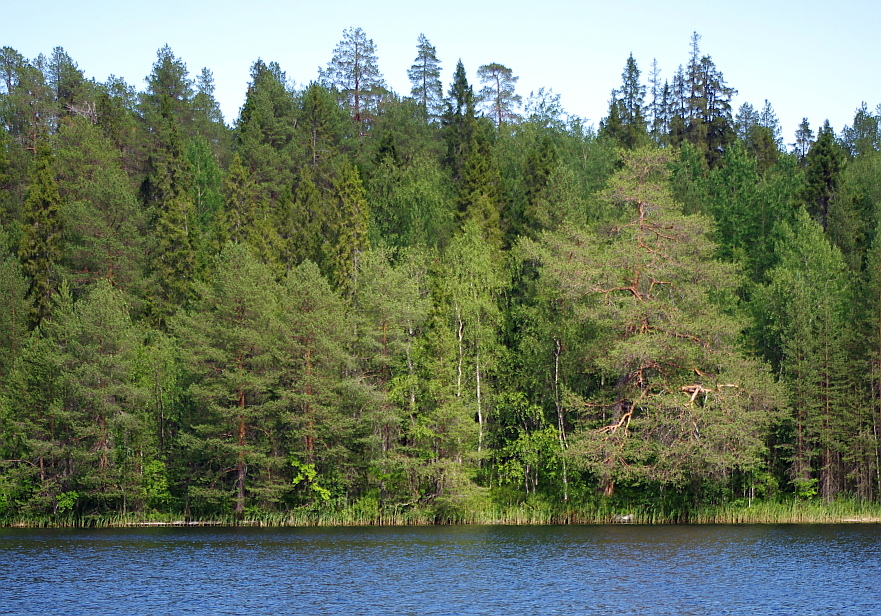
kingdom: Plantae
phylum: Tracheophyta
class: Pinopsida
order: Pinales
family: Pinaceae
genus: Pinus
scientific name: Pinus sylvestris
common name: Scots pine
